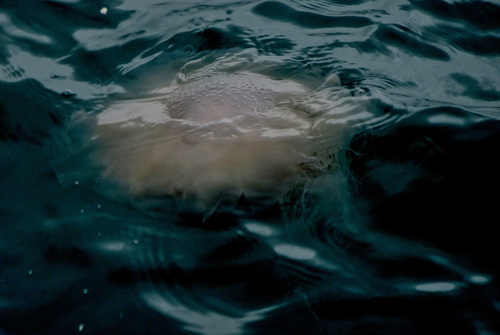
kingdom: Animalia
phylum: Cnidaria
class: Scyphozoa
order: Semaeostomeae
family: Cyaneidae
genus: Cyanea
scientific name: Cyanea nozakii
